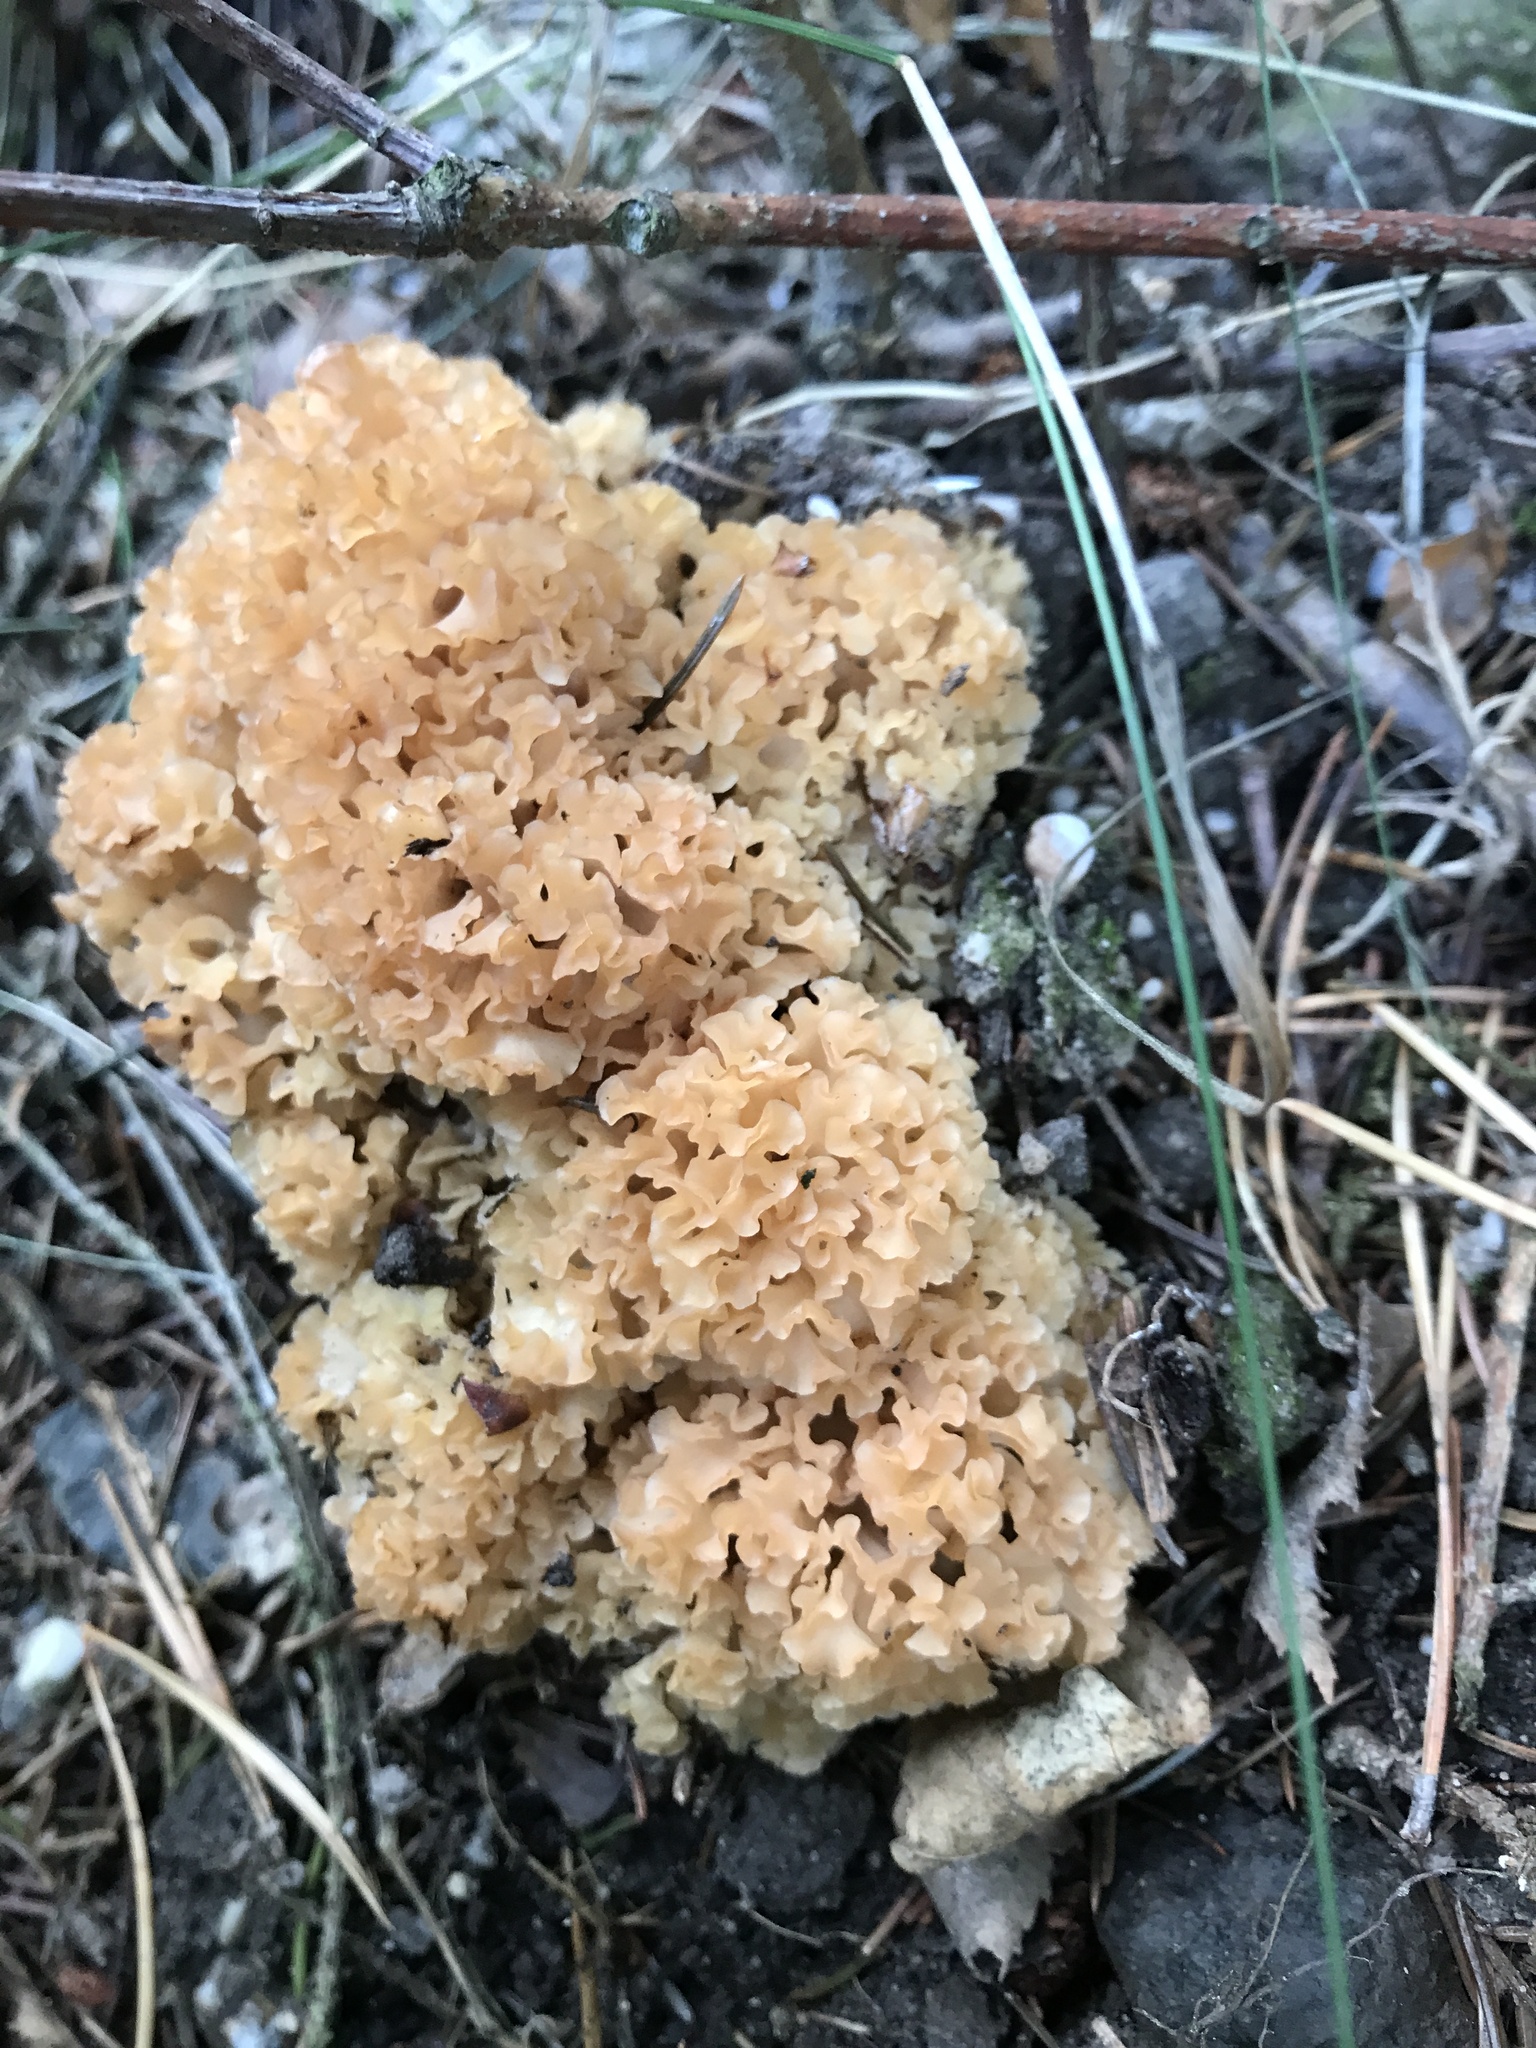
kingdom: Fungi
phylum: Basidiomycota
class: Agaricomycetes
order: Polyporales
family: Sparassidaceae
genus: Sparassis
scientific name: Sparassis crispa
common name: Brain fungus
